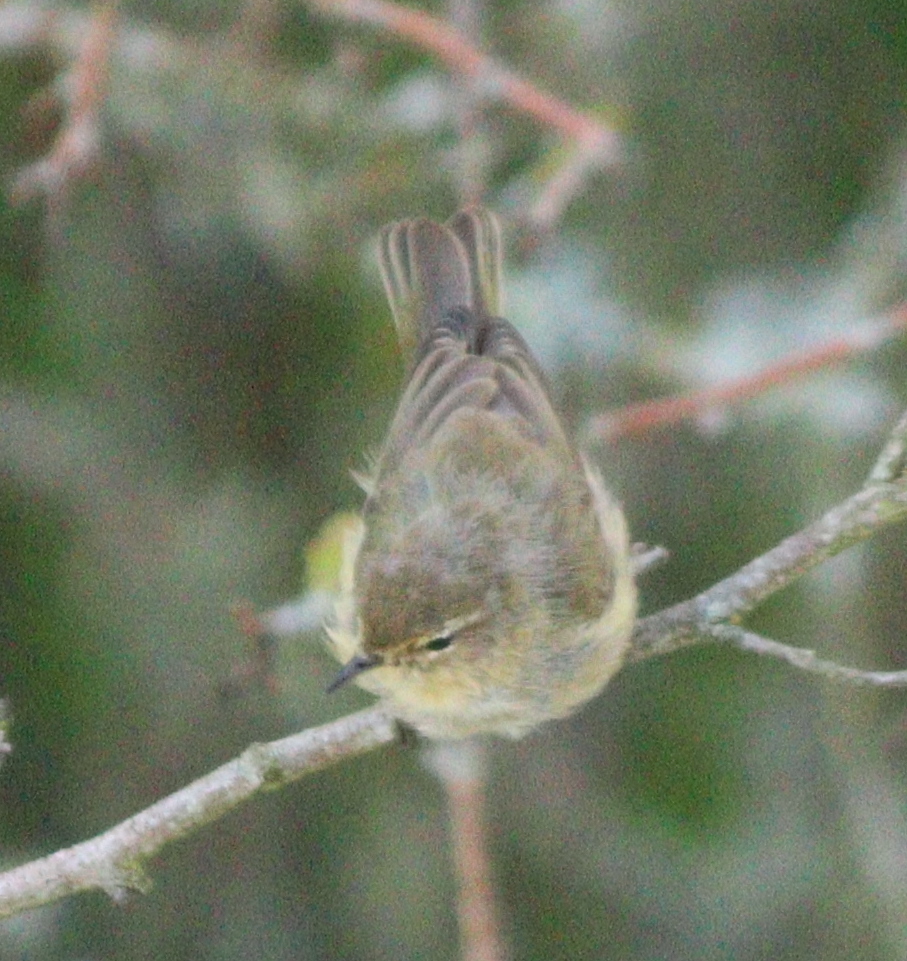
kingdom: Animalia
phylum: Chordata
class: Aves
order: Passeriformes
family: Phylloscopidae
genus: Phylloscopus
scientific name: Phylloscopus collybita
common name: Common chiffchaff
